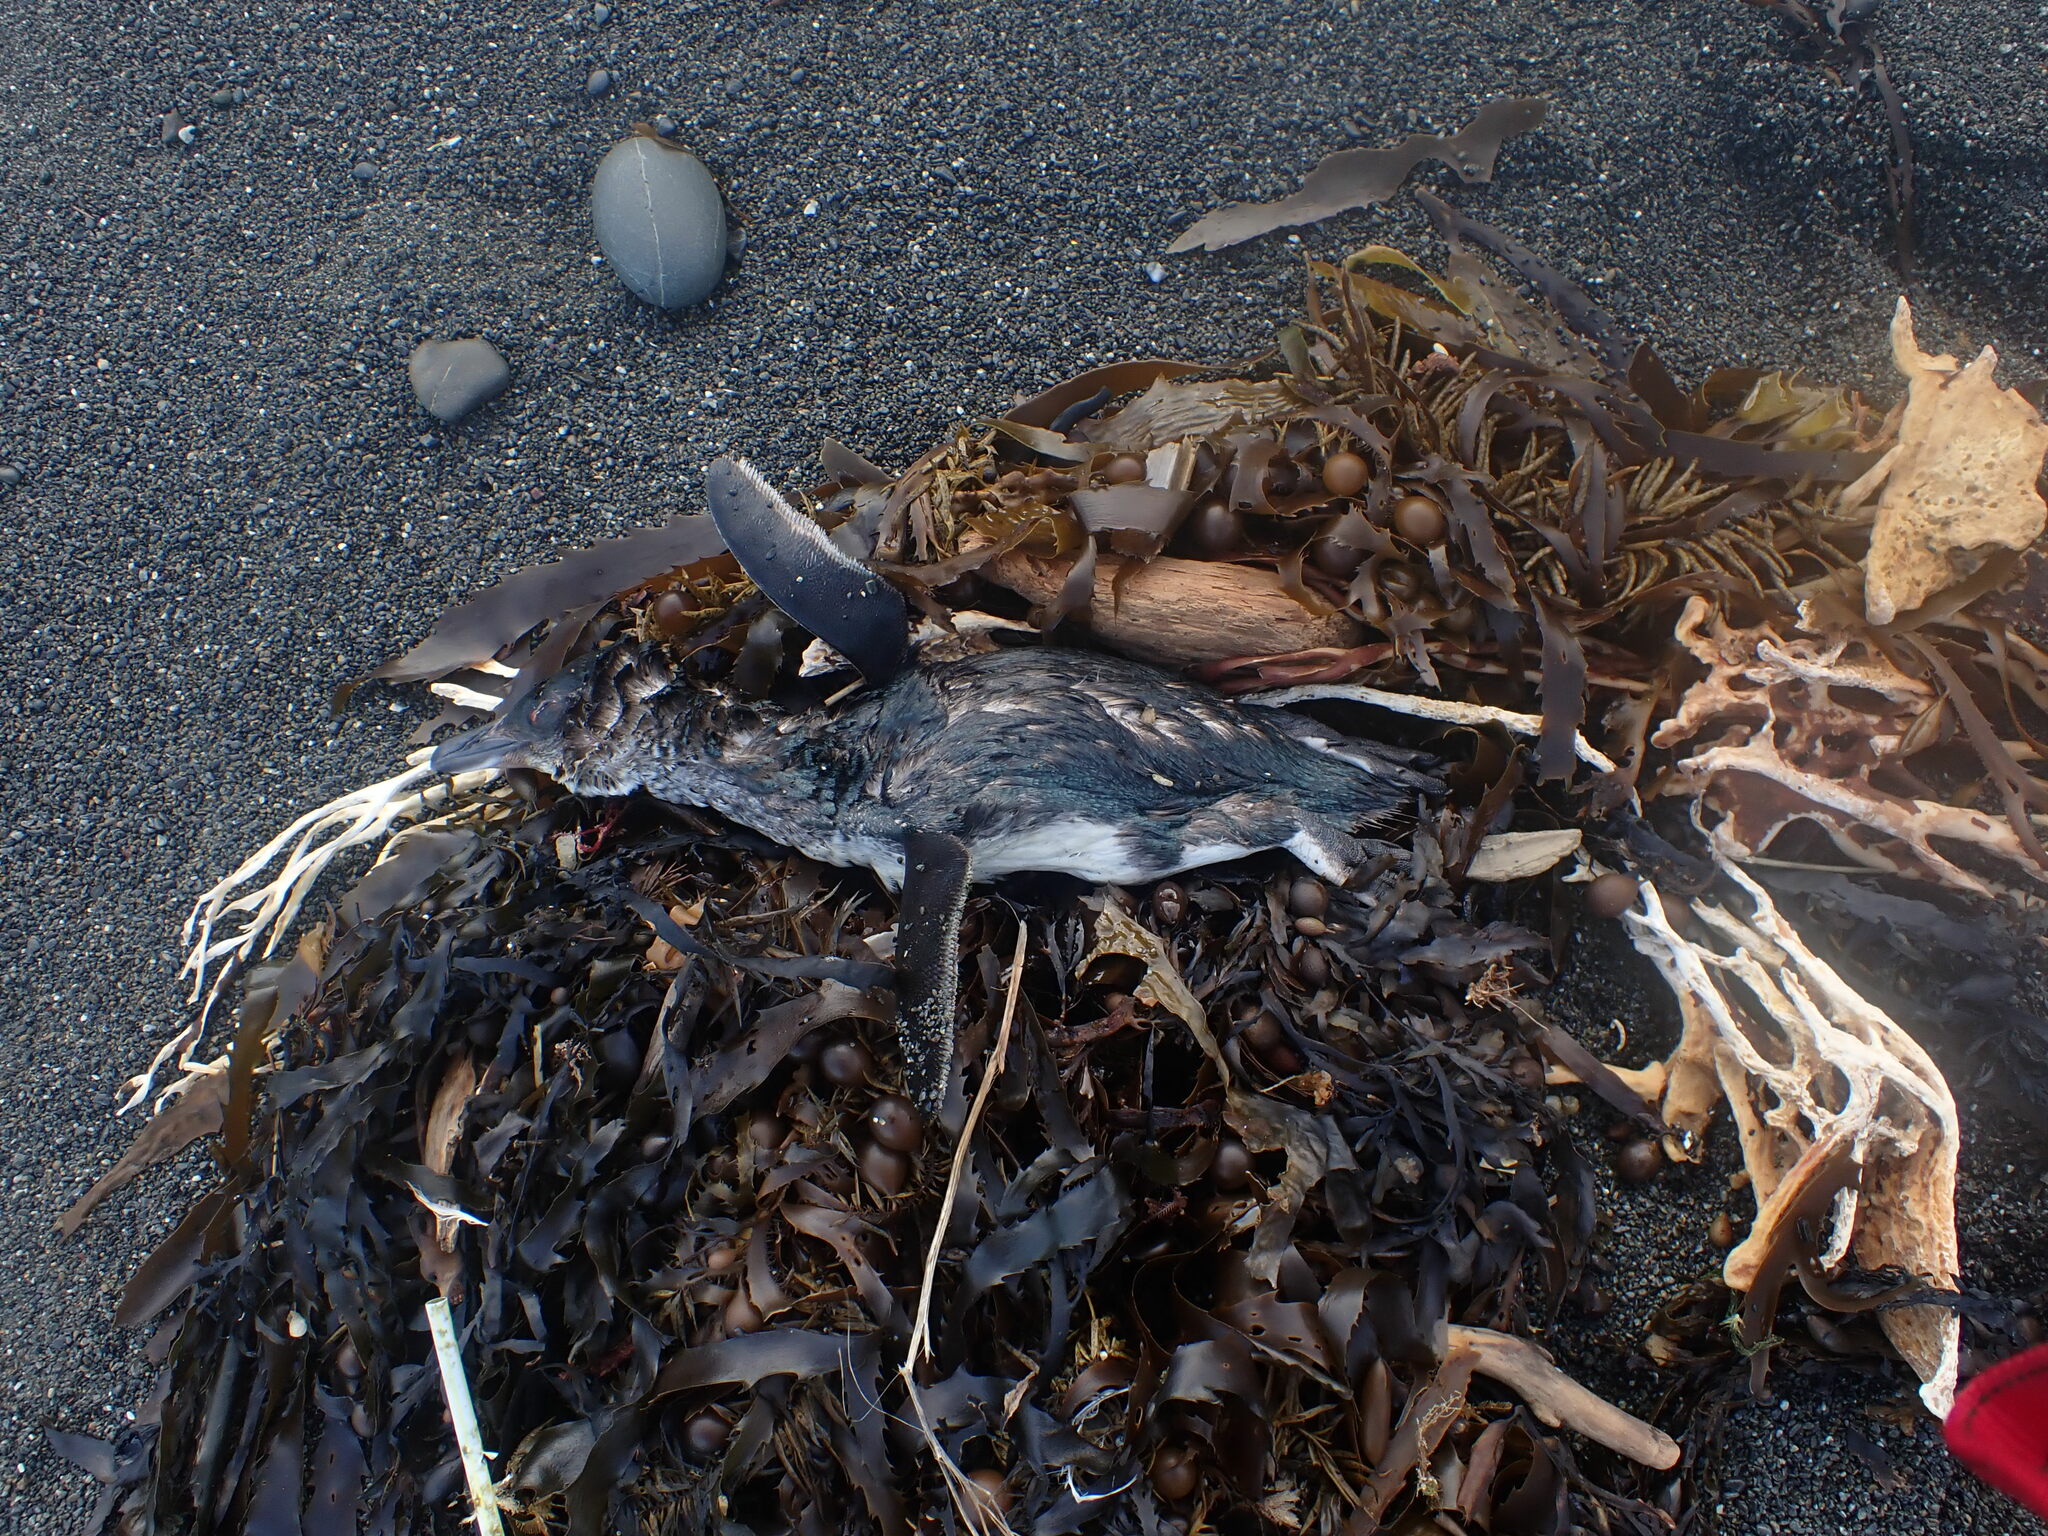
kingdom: Animalia
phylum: Chordata
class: Aves
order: Sphenisciformes
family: Spheniscidae
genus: Eudyptula
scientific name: Eudyptula minor
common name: Little penguin
